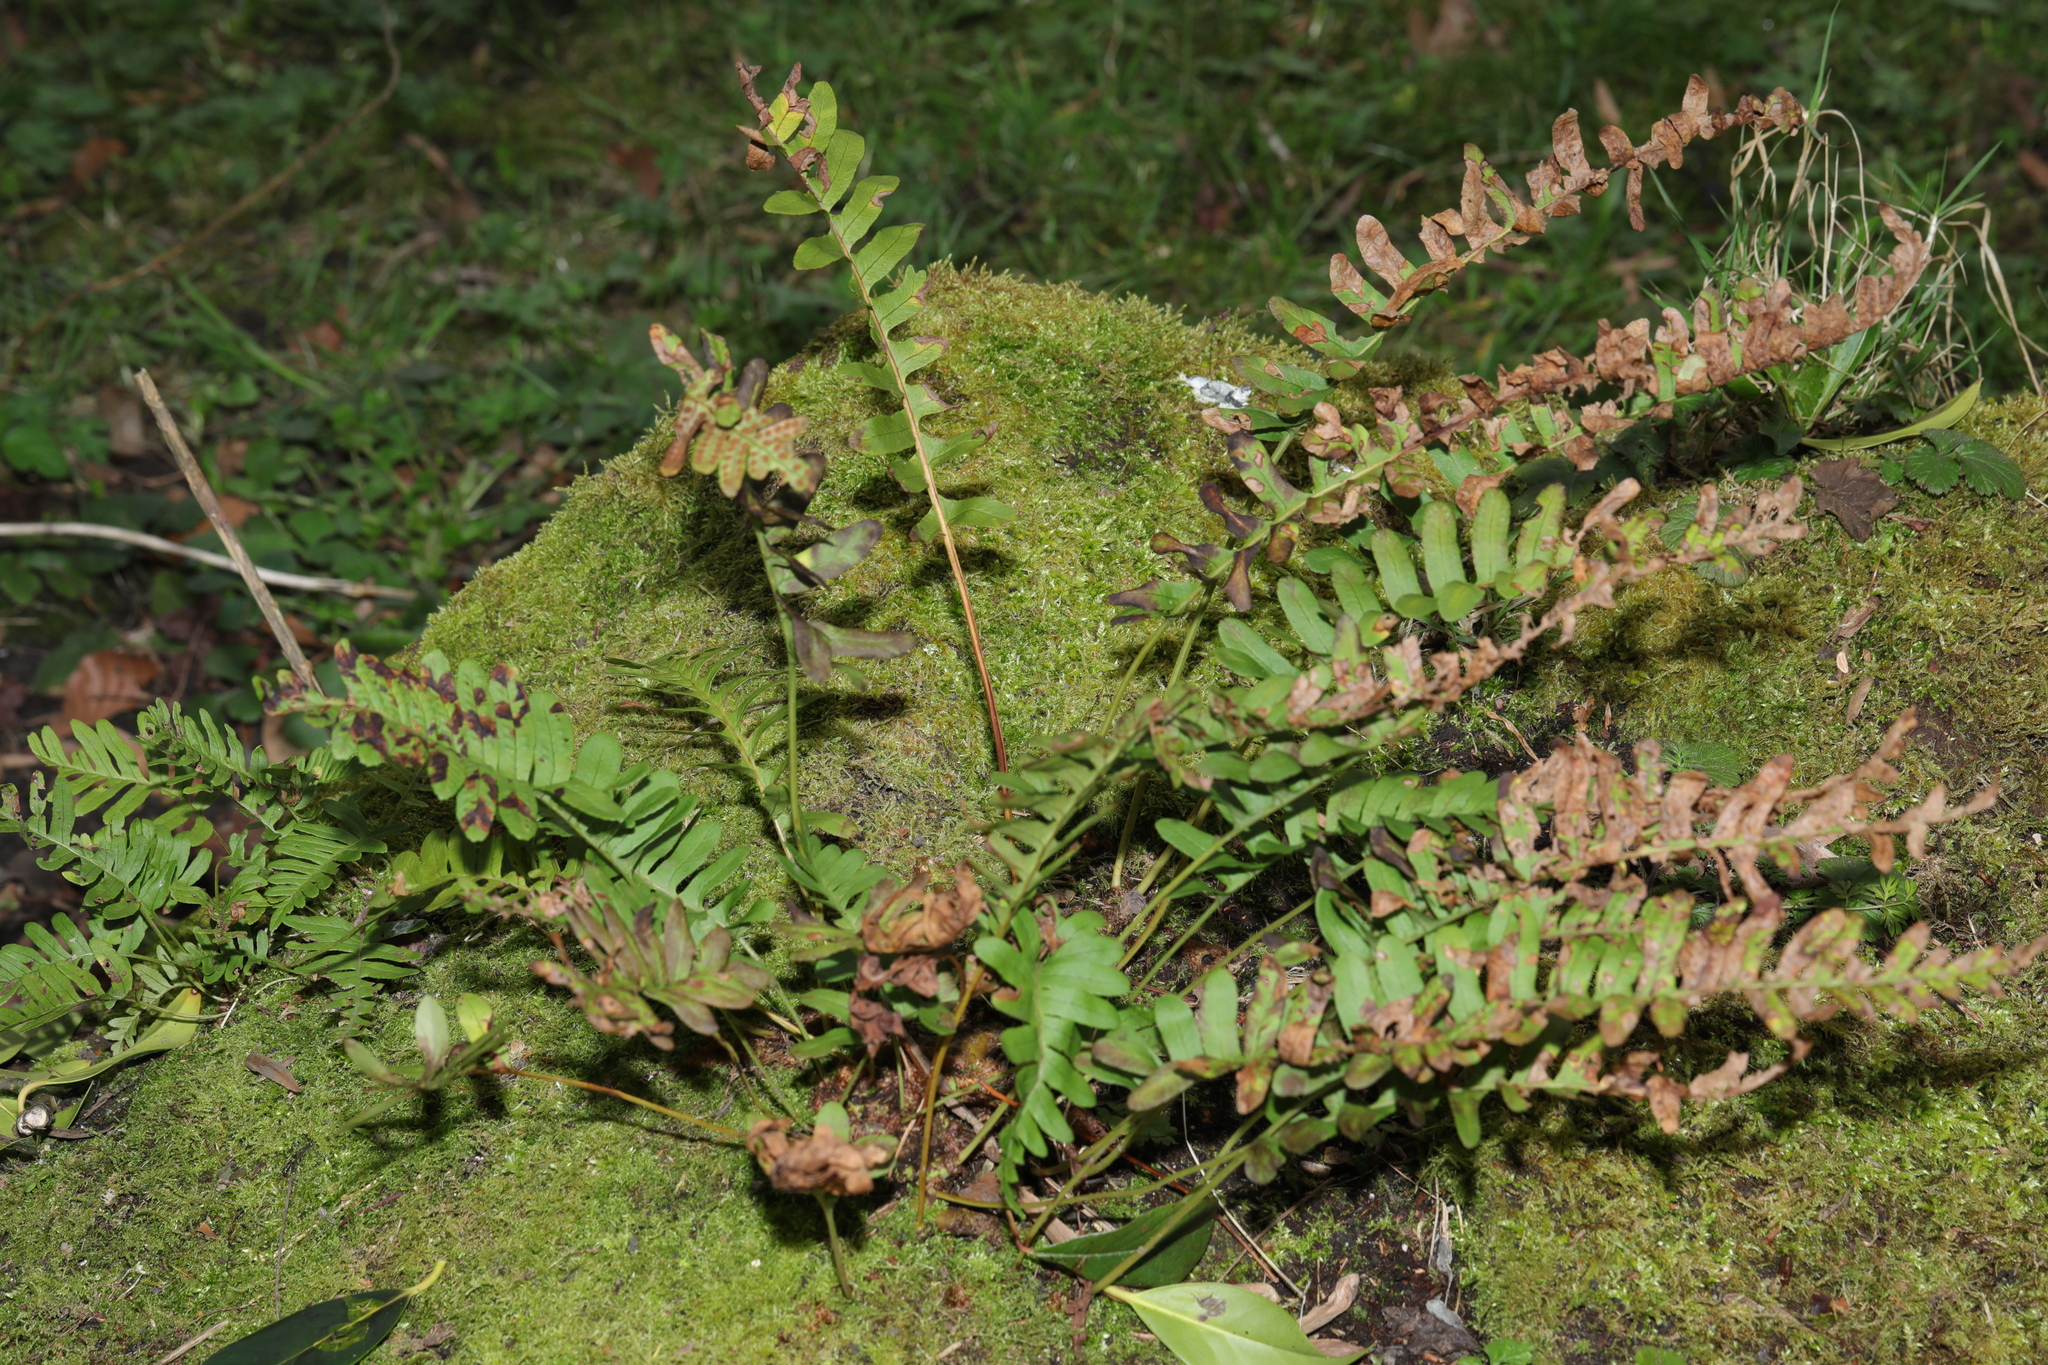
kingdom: Plantae
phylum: Tracheophyta
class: Polypodiopsida
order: Polypodiales
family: Polypodiaceae
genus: Polypodium
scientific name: Polypodium vulgare
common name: Common polypody
